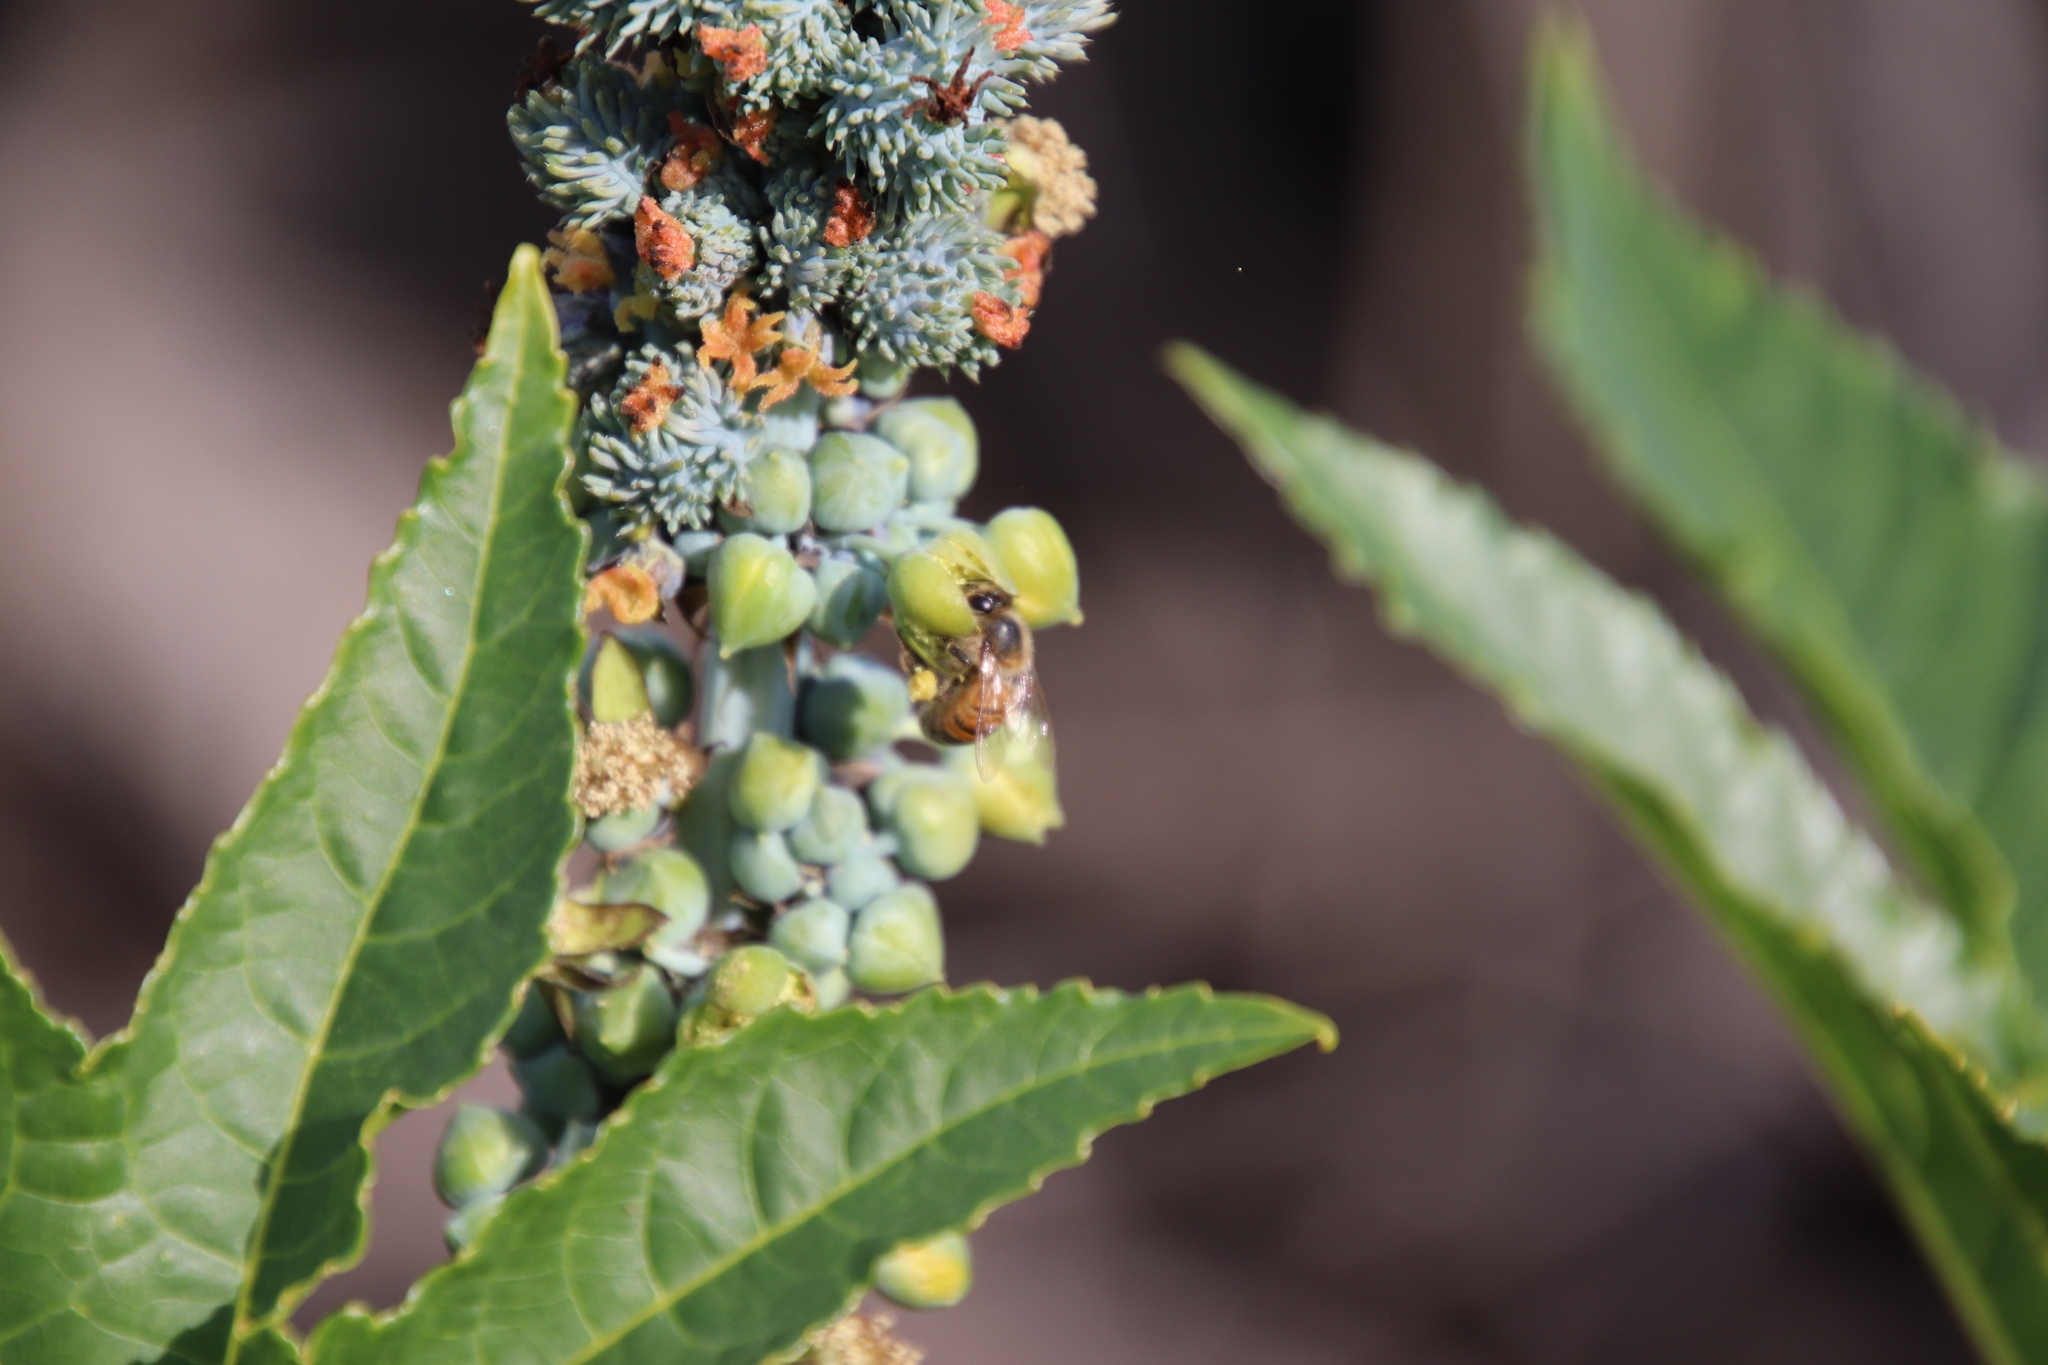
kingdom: Plantae
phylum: Tracheophyta
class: Magnoliopsida
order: Malpighiales
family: Euphorbiaceae
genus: Ricinus
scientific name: Ricinus communis
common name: Castor-oil-plant
